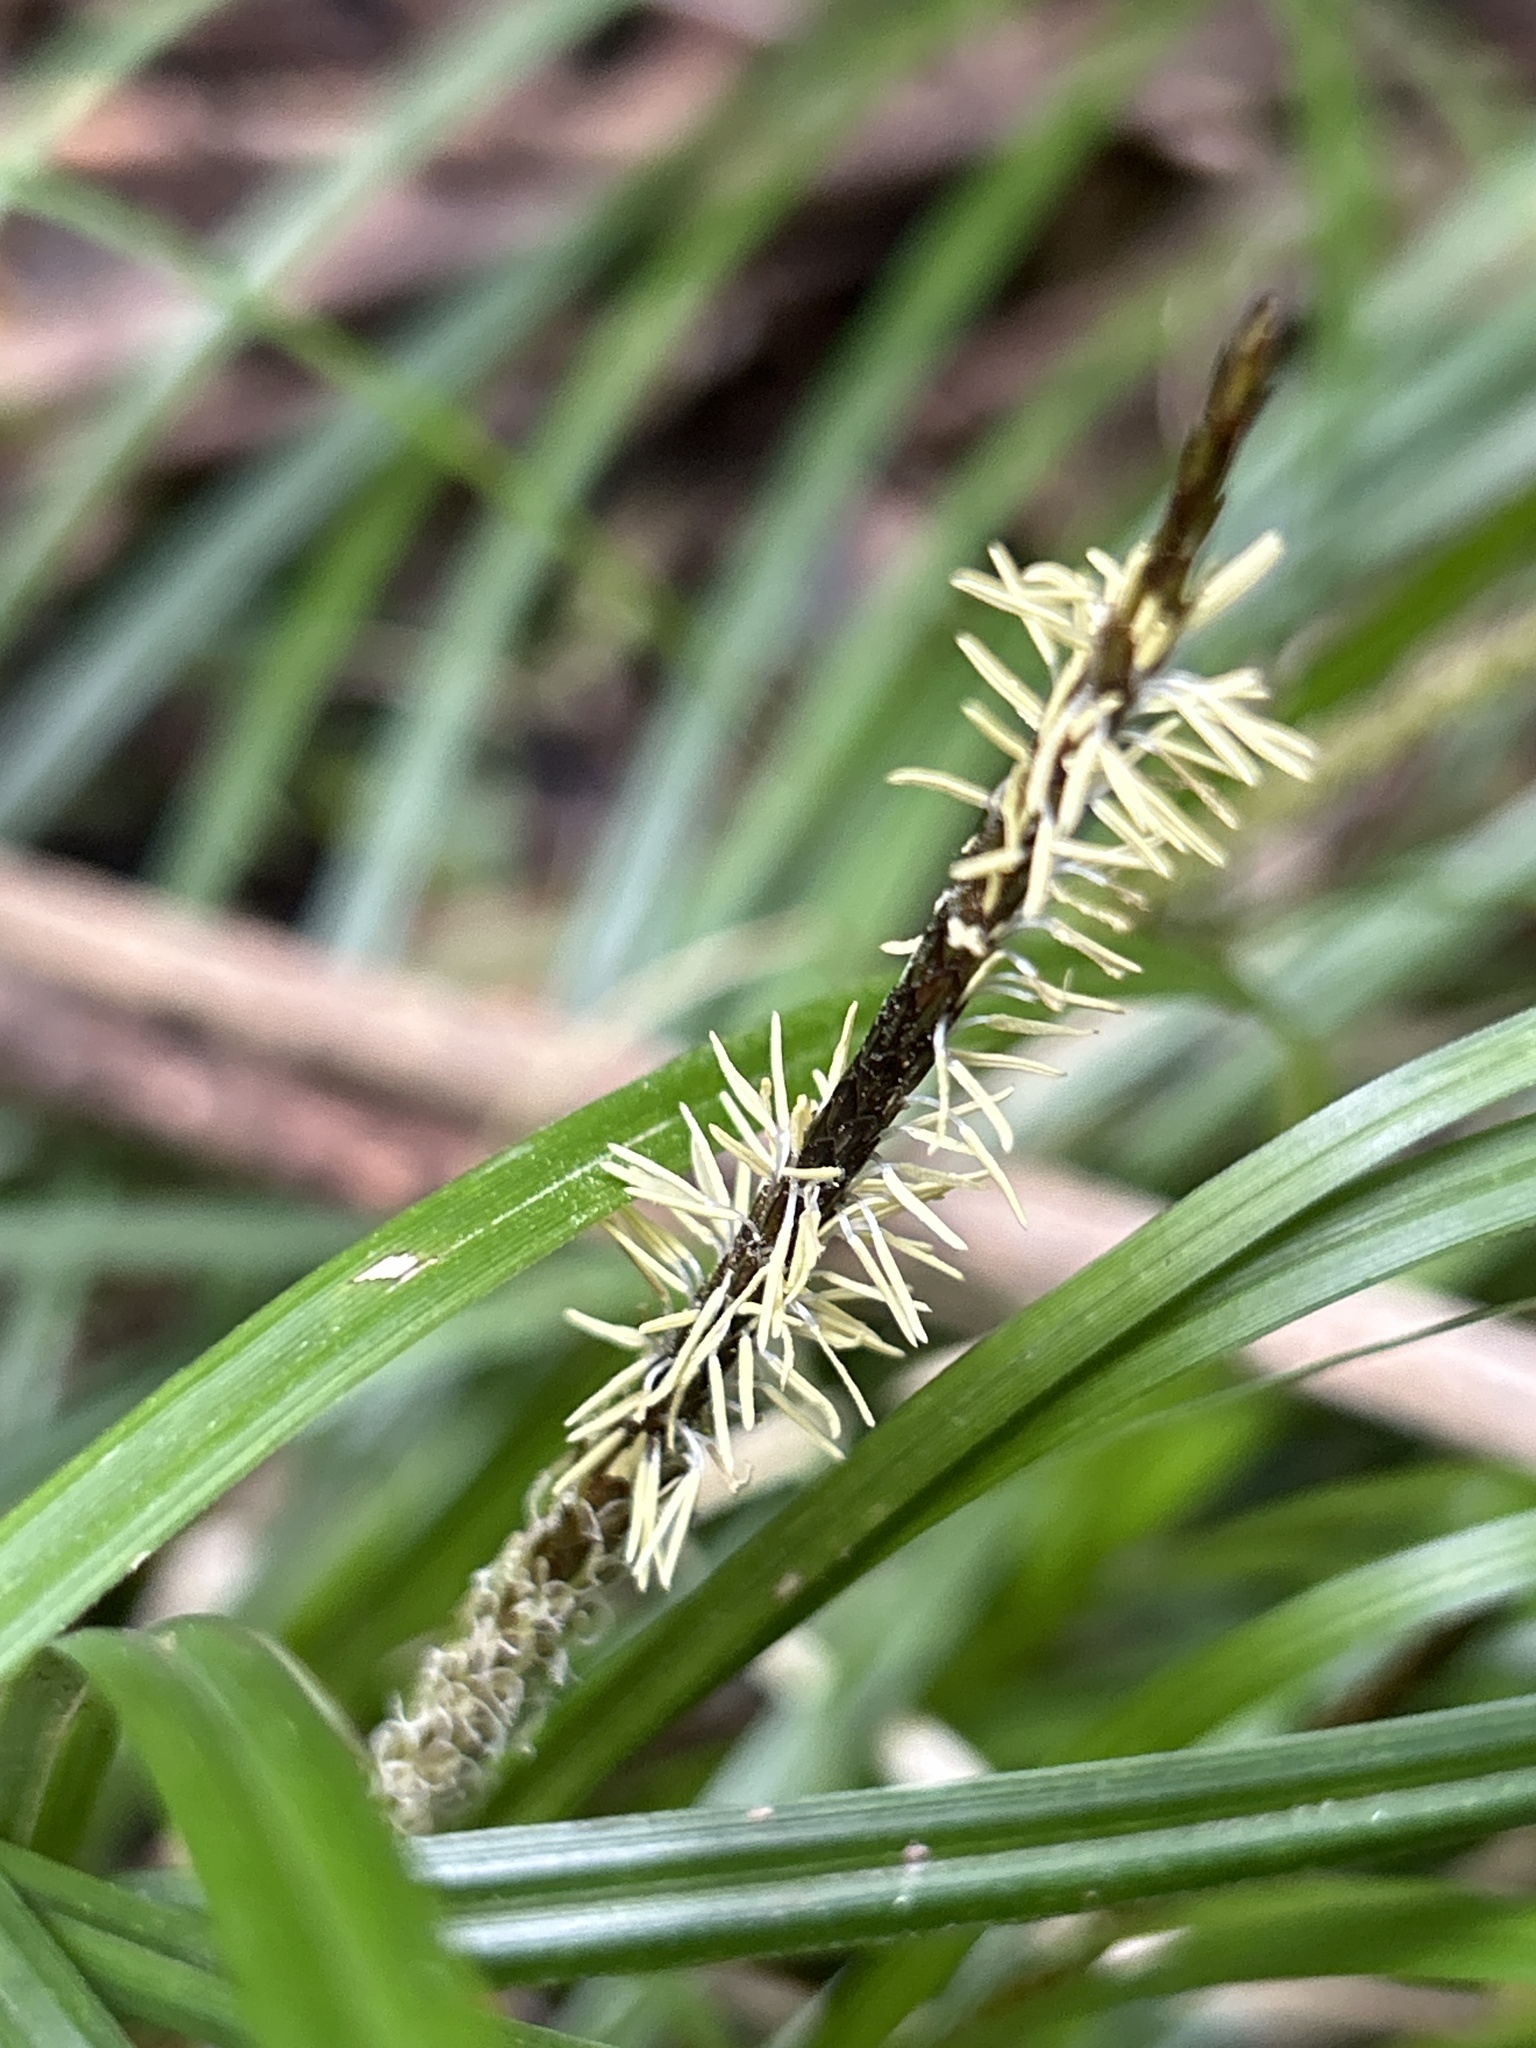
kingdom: Plantae
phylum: Tracheophyta
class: Liliopsida
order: Poales
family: Cyperaceae
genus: Carex
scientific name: Carex uncinata
